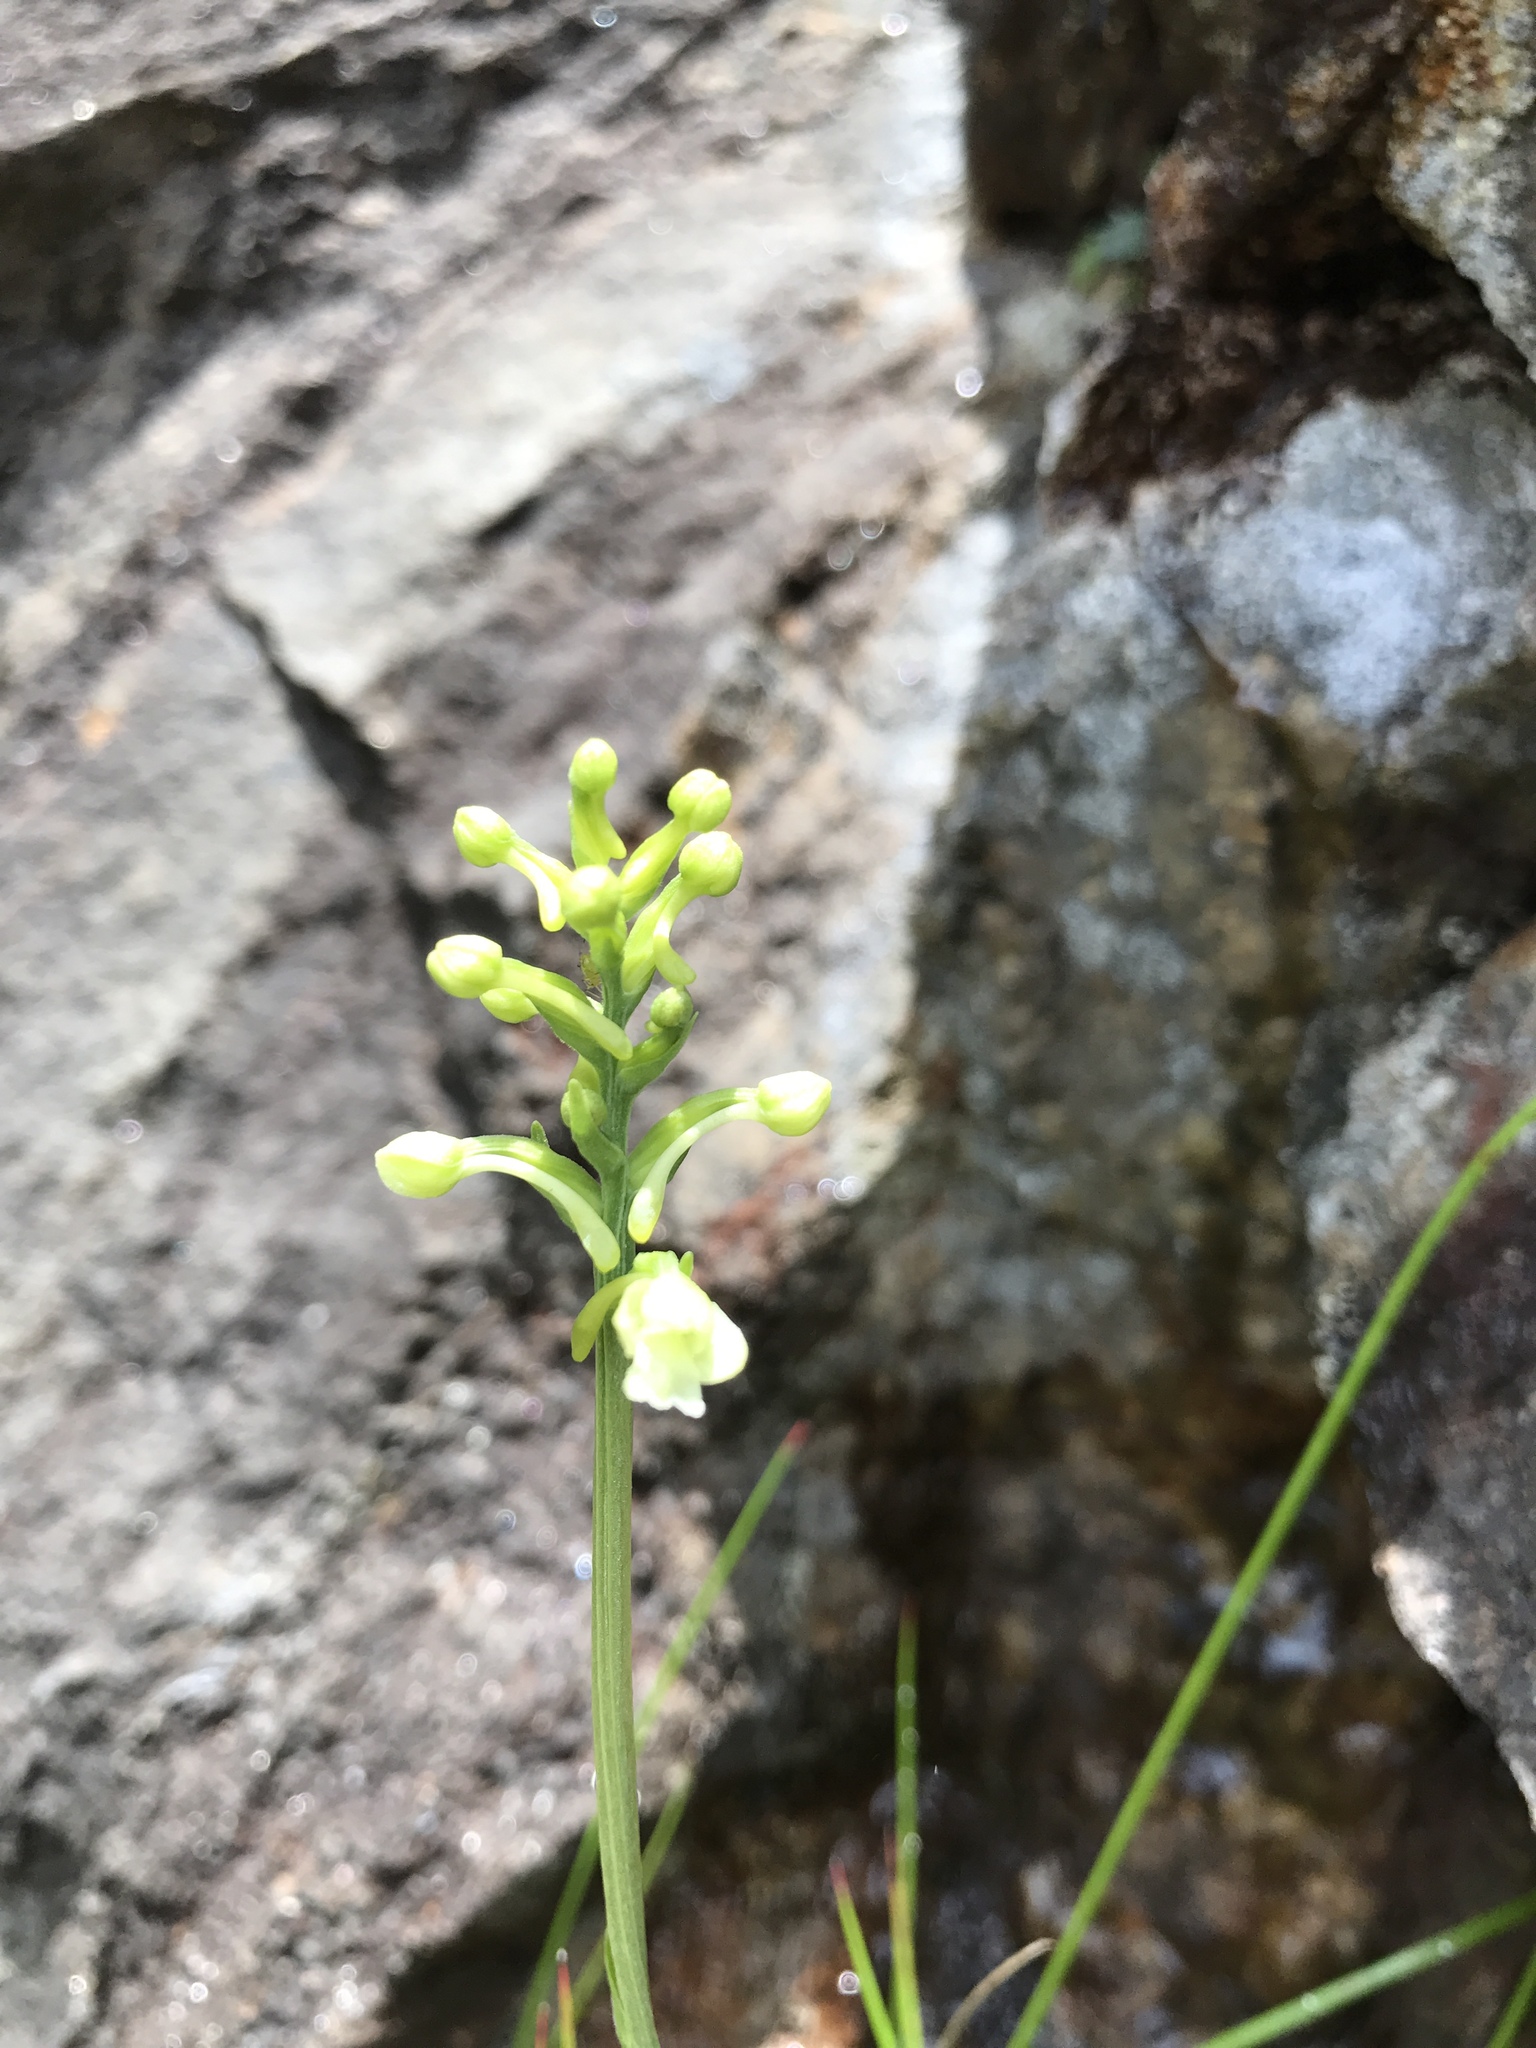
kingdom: Plantae
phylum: Tracheophyta
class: Liliopsida
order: Asparagales
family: Orchidaceae
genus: Platanthera
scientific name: Platanthera clavellata
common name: Club-spur orchid
